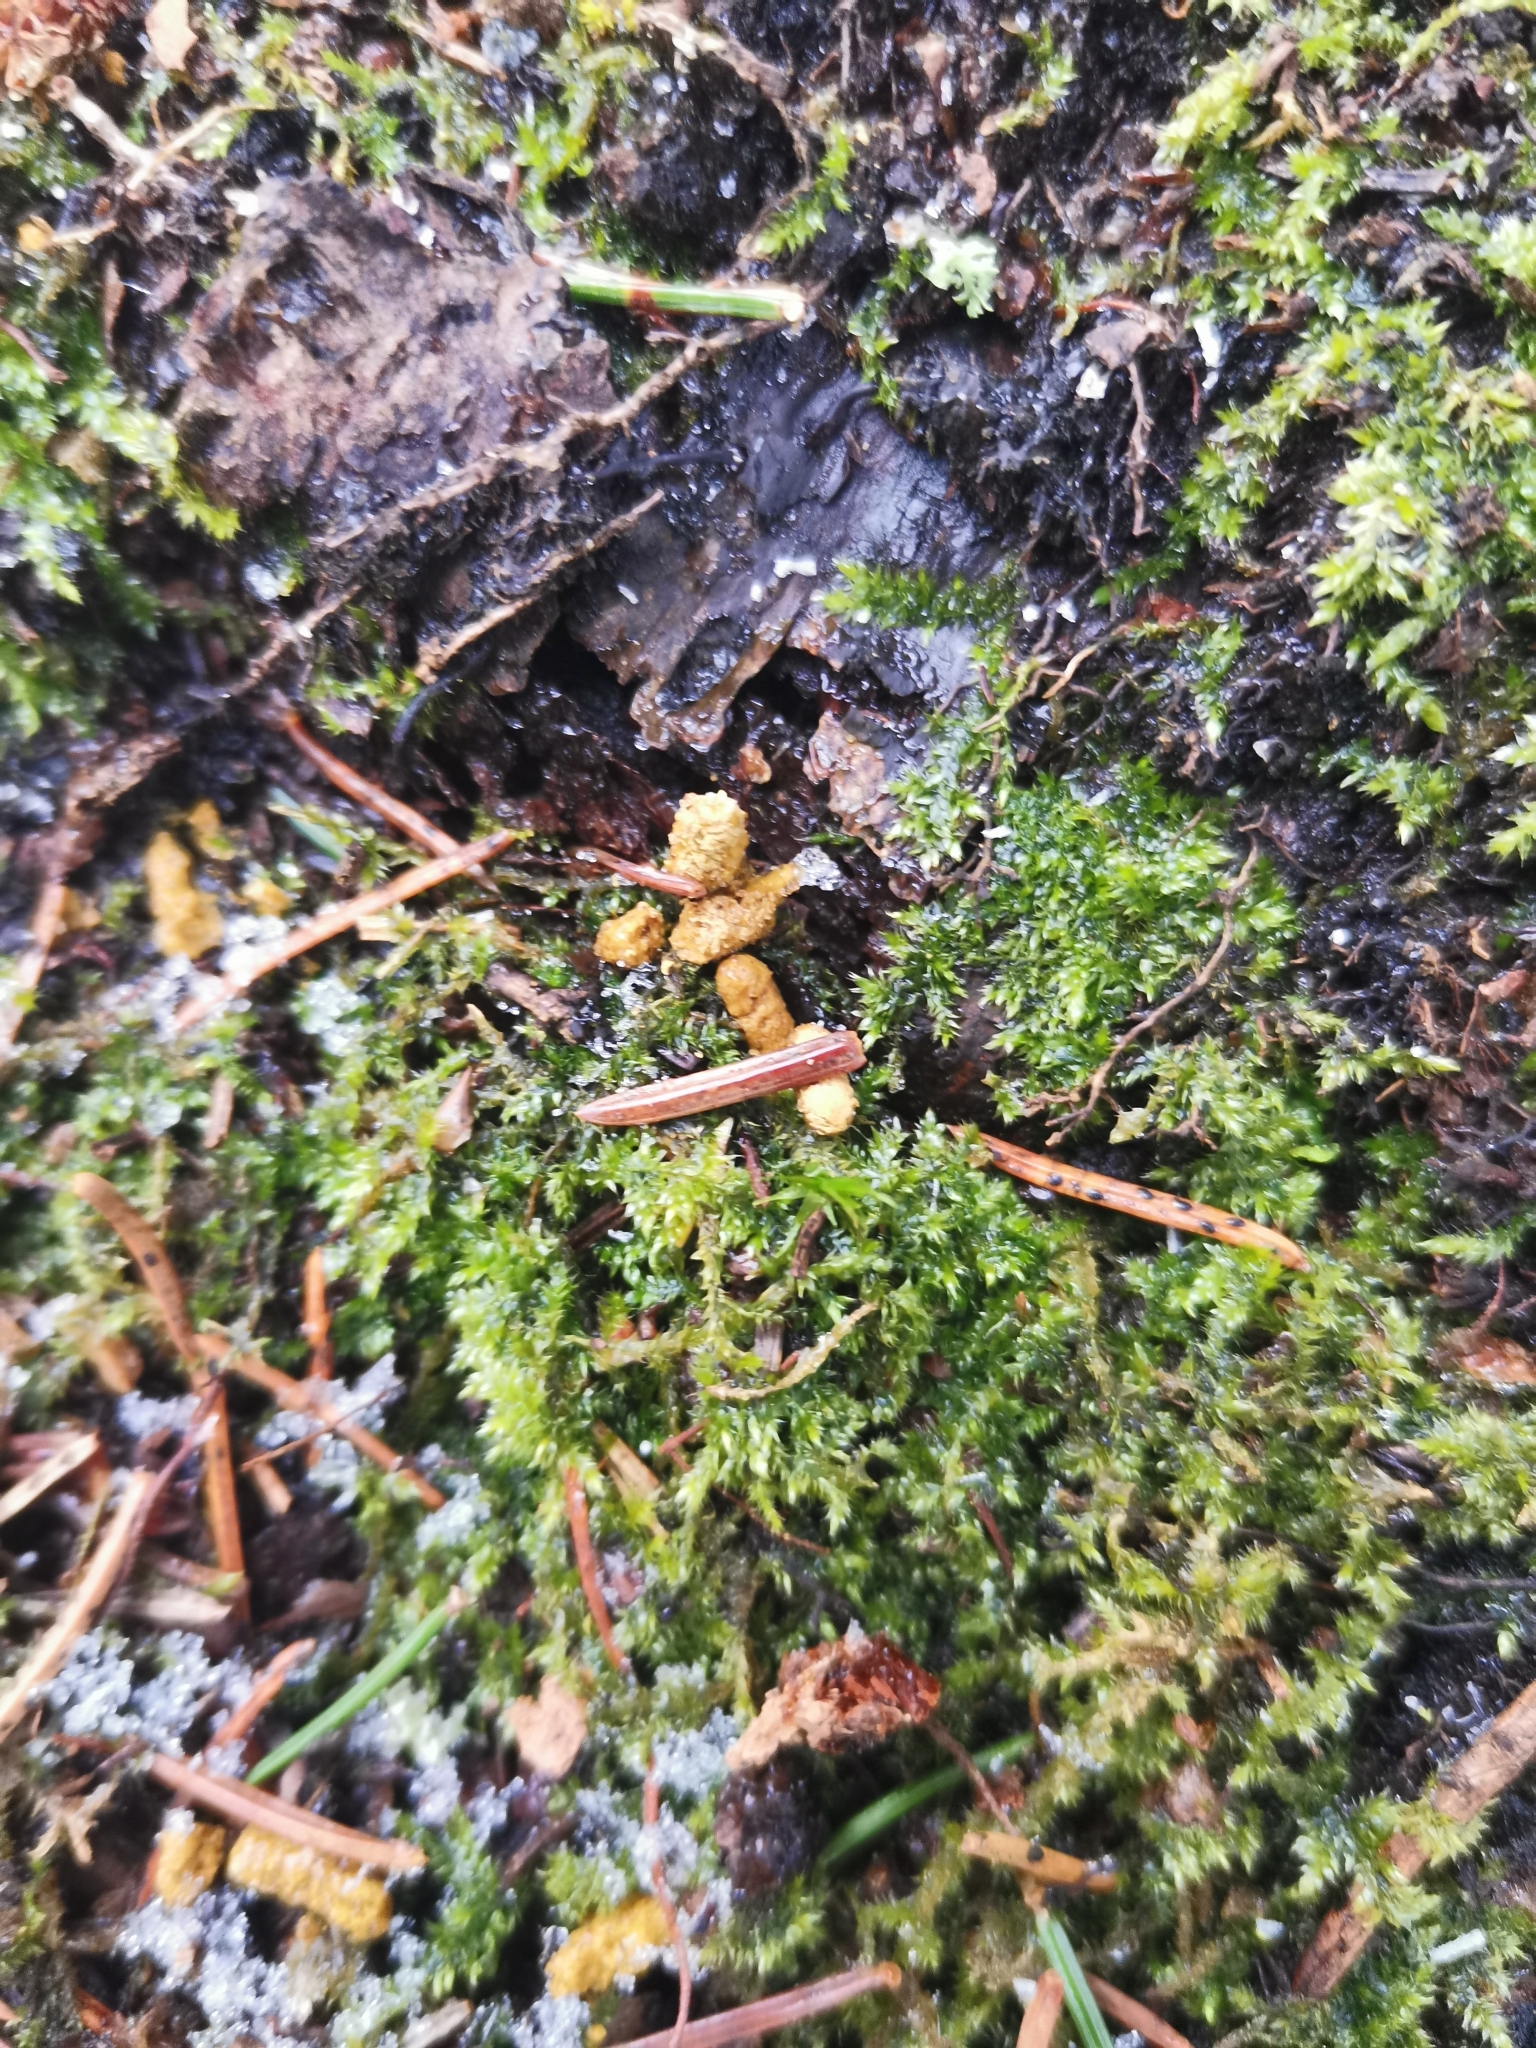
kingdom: Animalia
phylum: Chordata
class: Mammalia
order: Rodentia
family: Sciuridae
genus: Pteromys
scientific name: Pteromys volans
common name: Siberian flying squirrel
